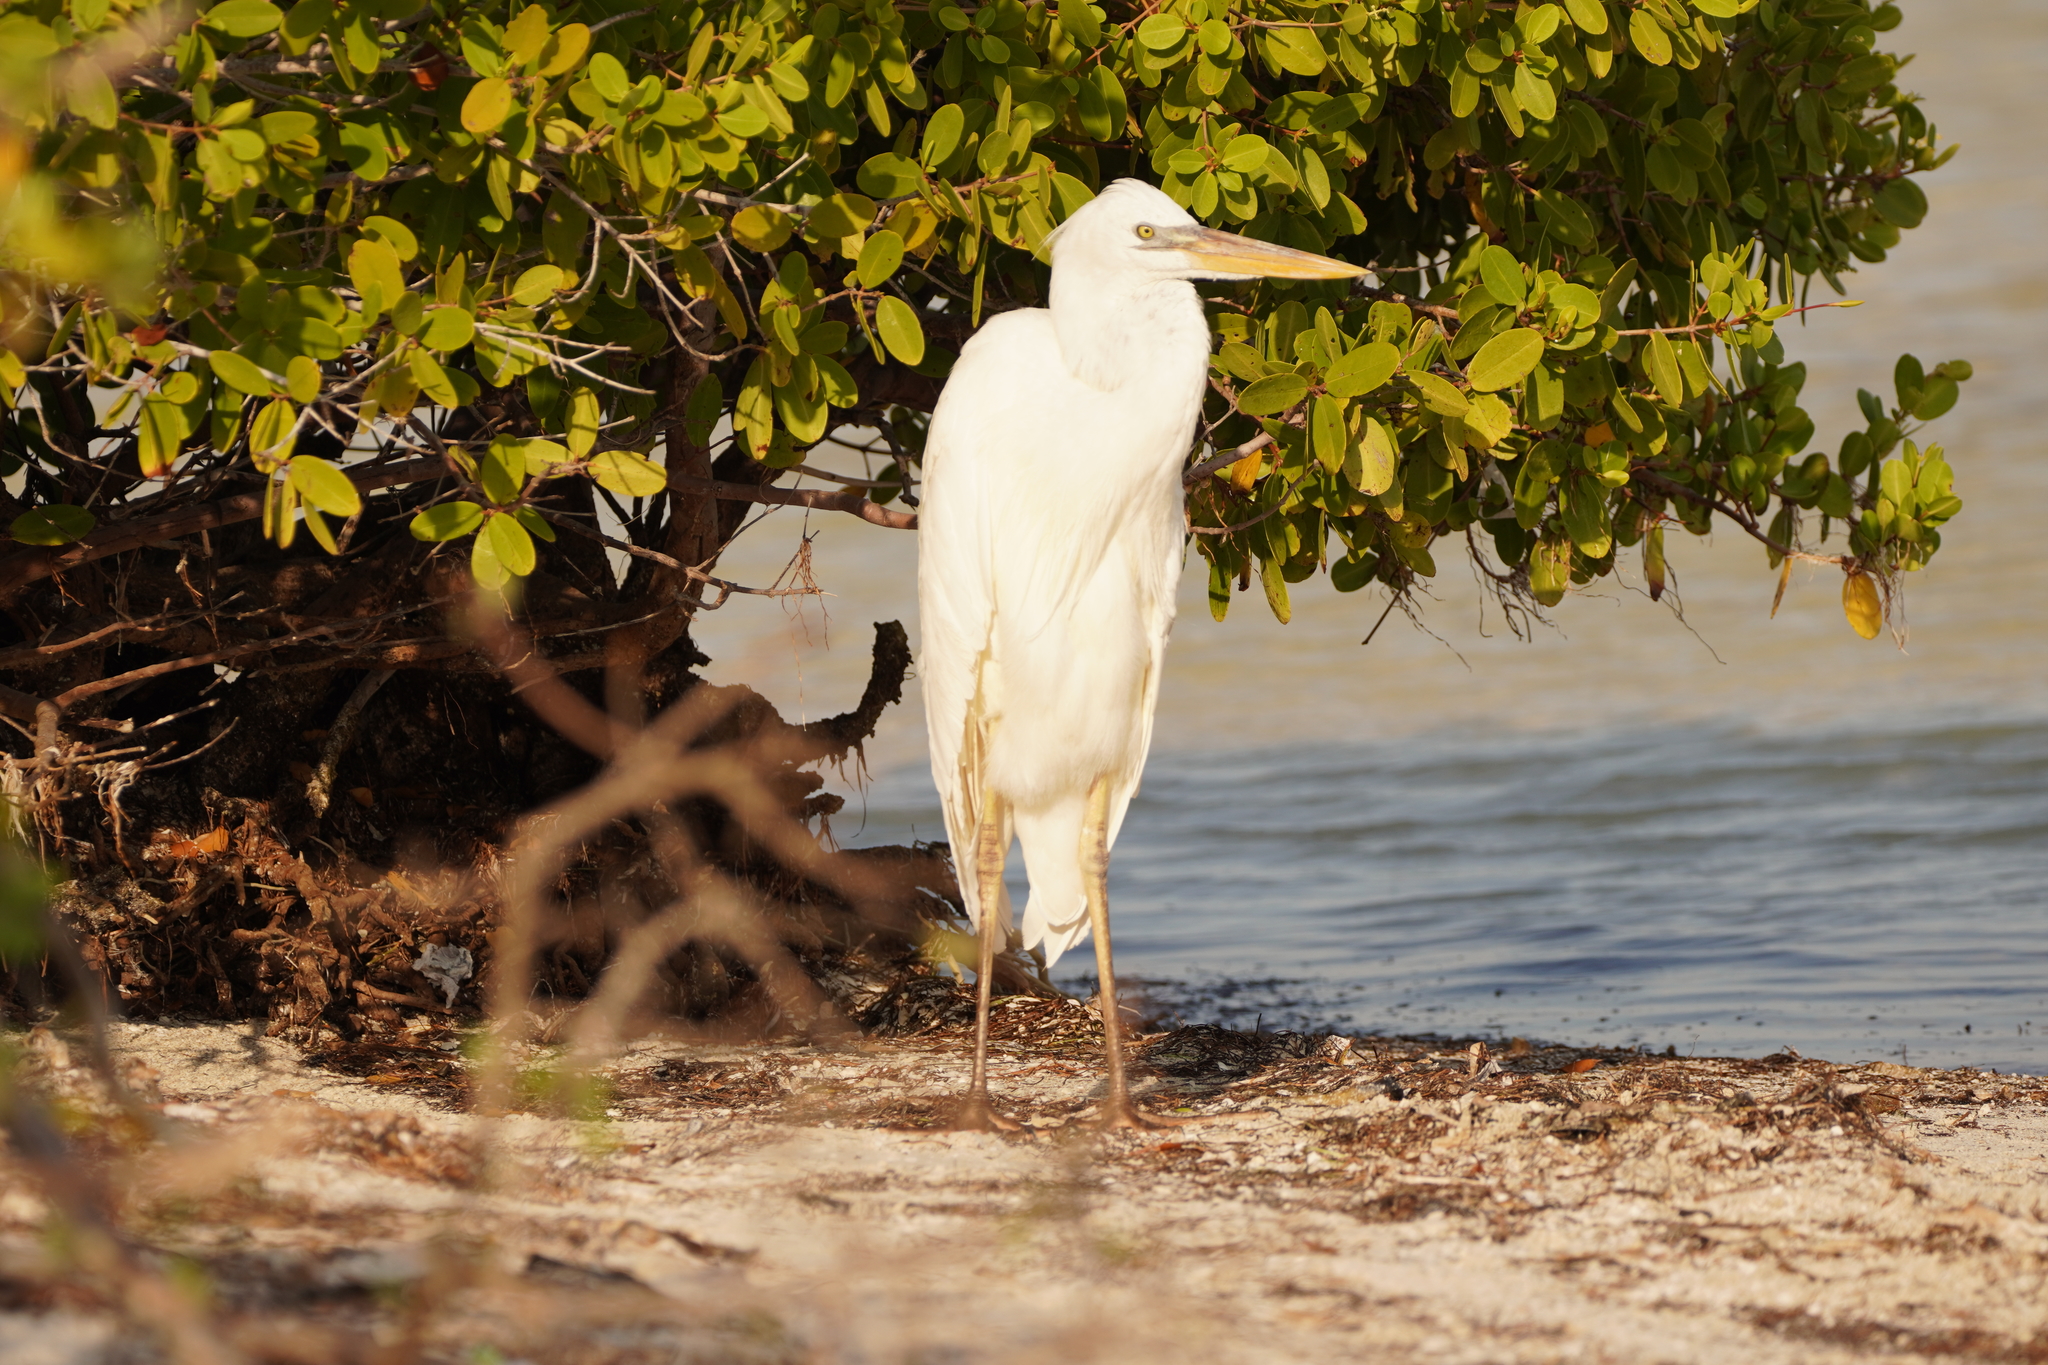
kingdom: Animalia
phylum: Chordata
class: Aves
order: Pelecaniformes
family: Ardeidae
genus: Ardea
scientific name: Ardea herodias
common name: Great blue heron
